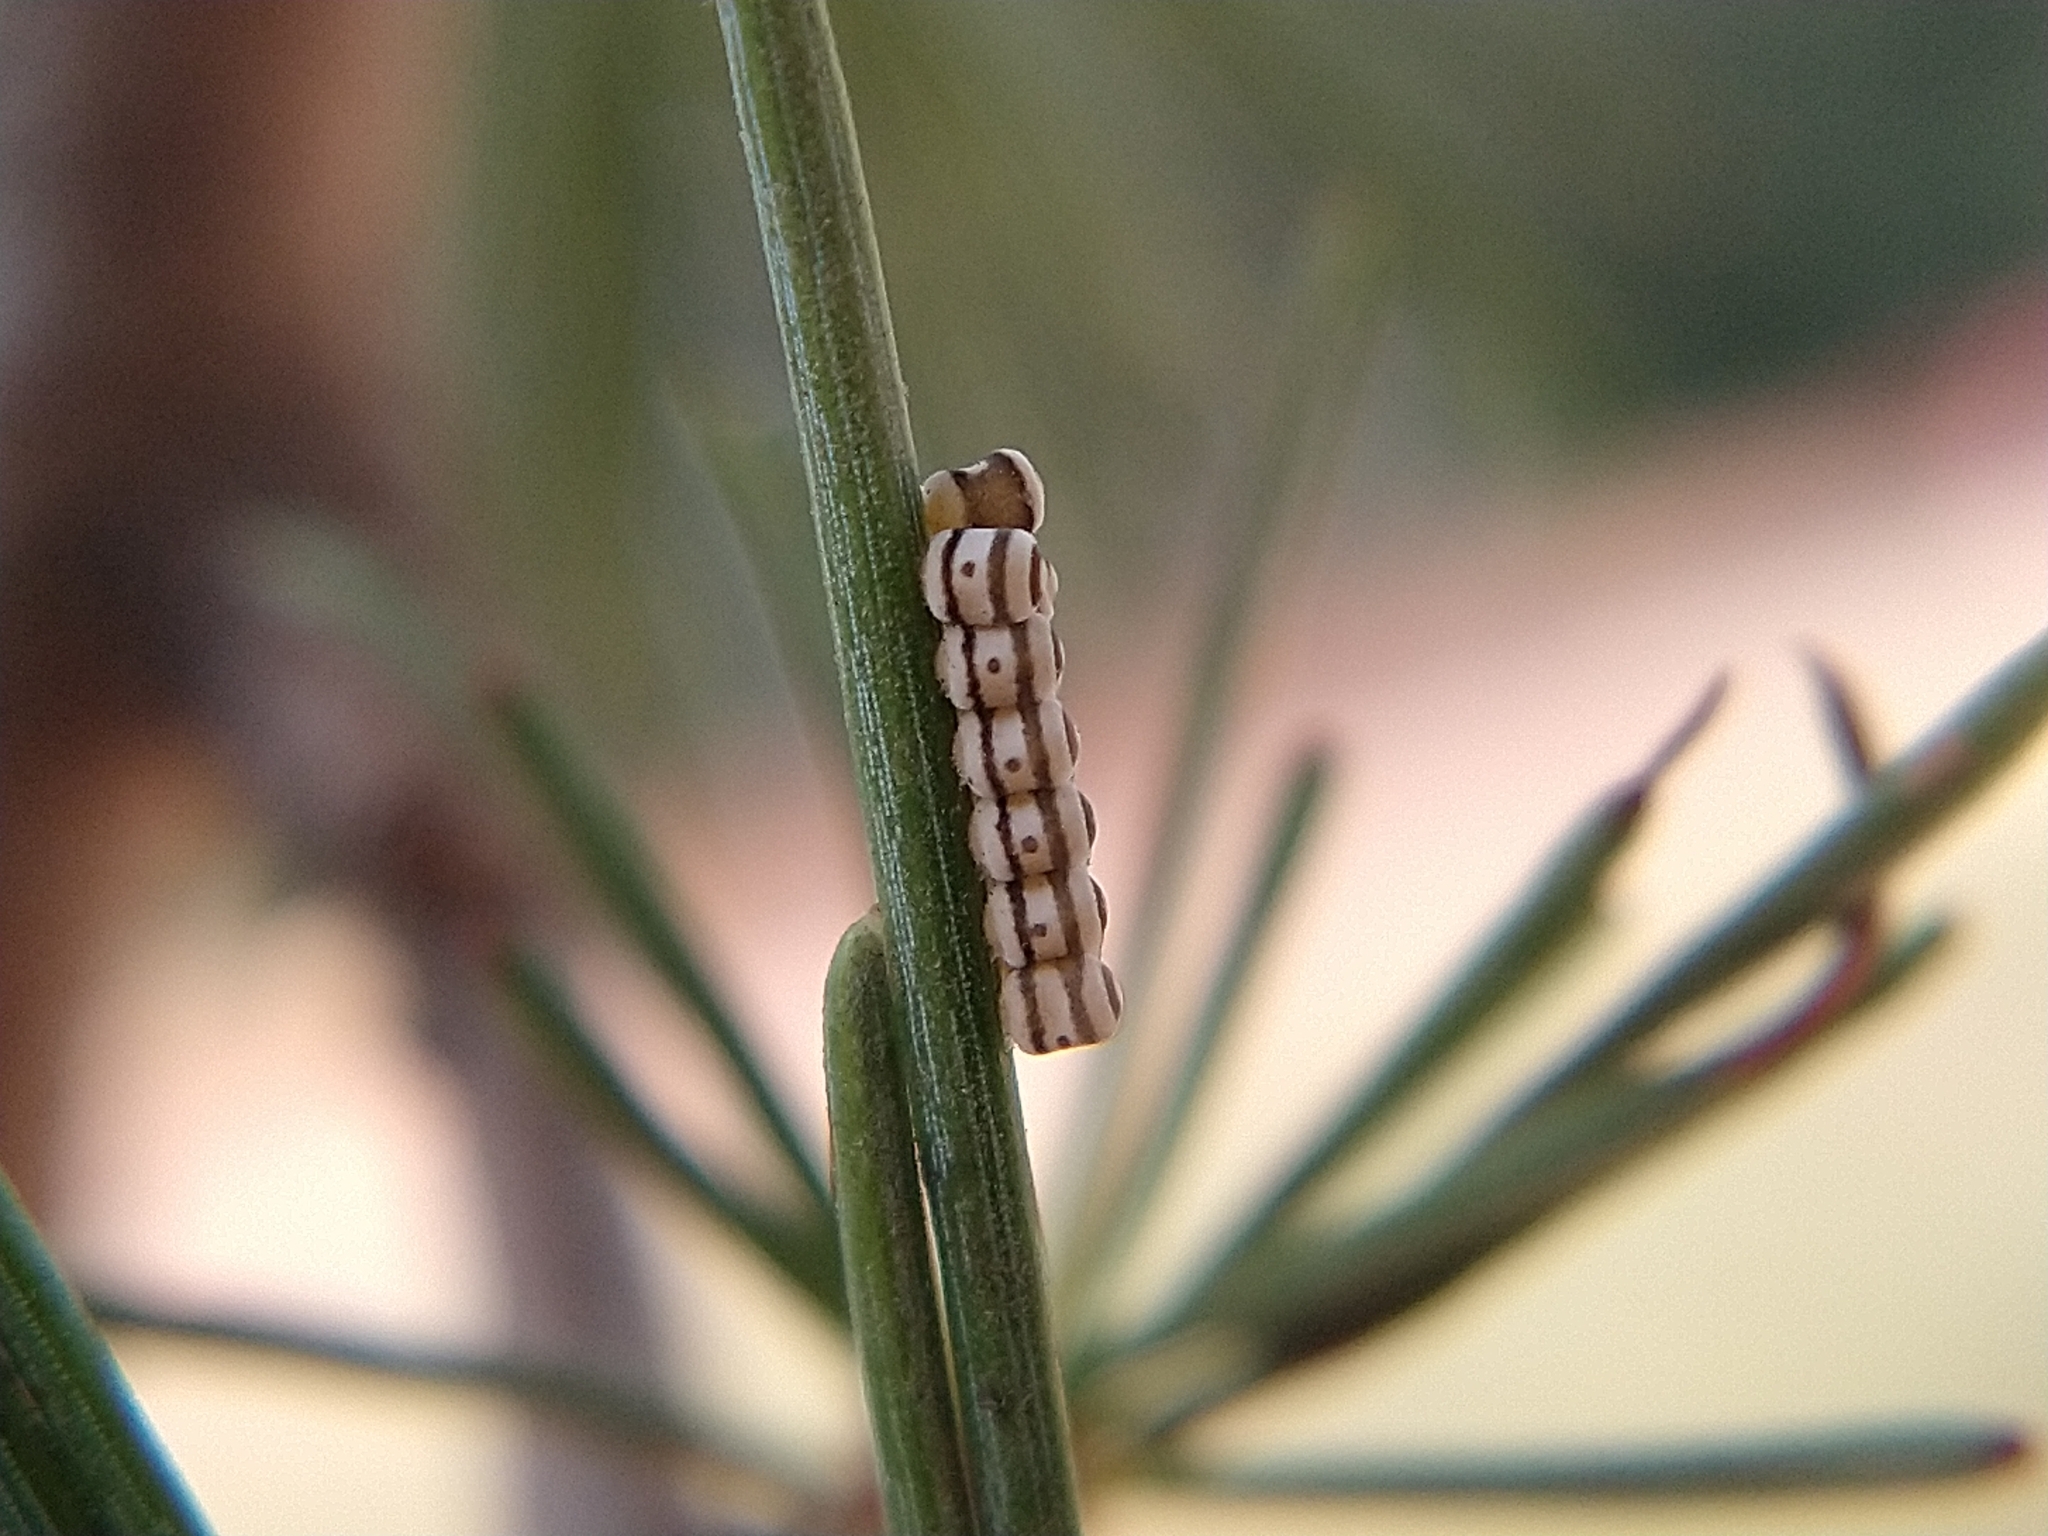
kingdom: Animalia
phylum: Arthropoda
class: Insecta
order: Hemiptera
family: Pentatomidae
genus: Murgantia
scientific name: Murgantia histrionica
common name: Harlequin bug
